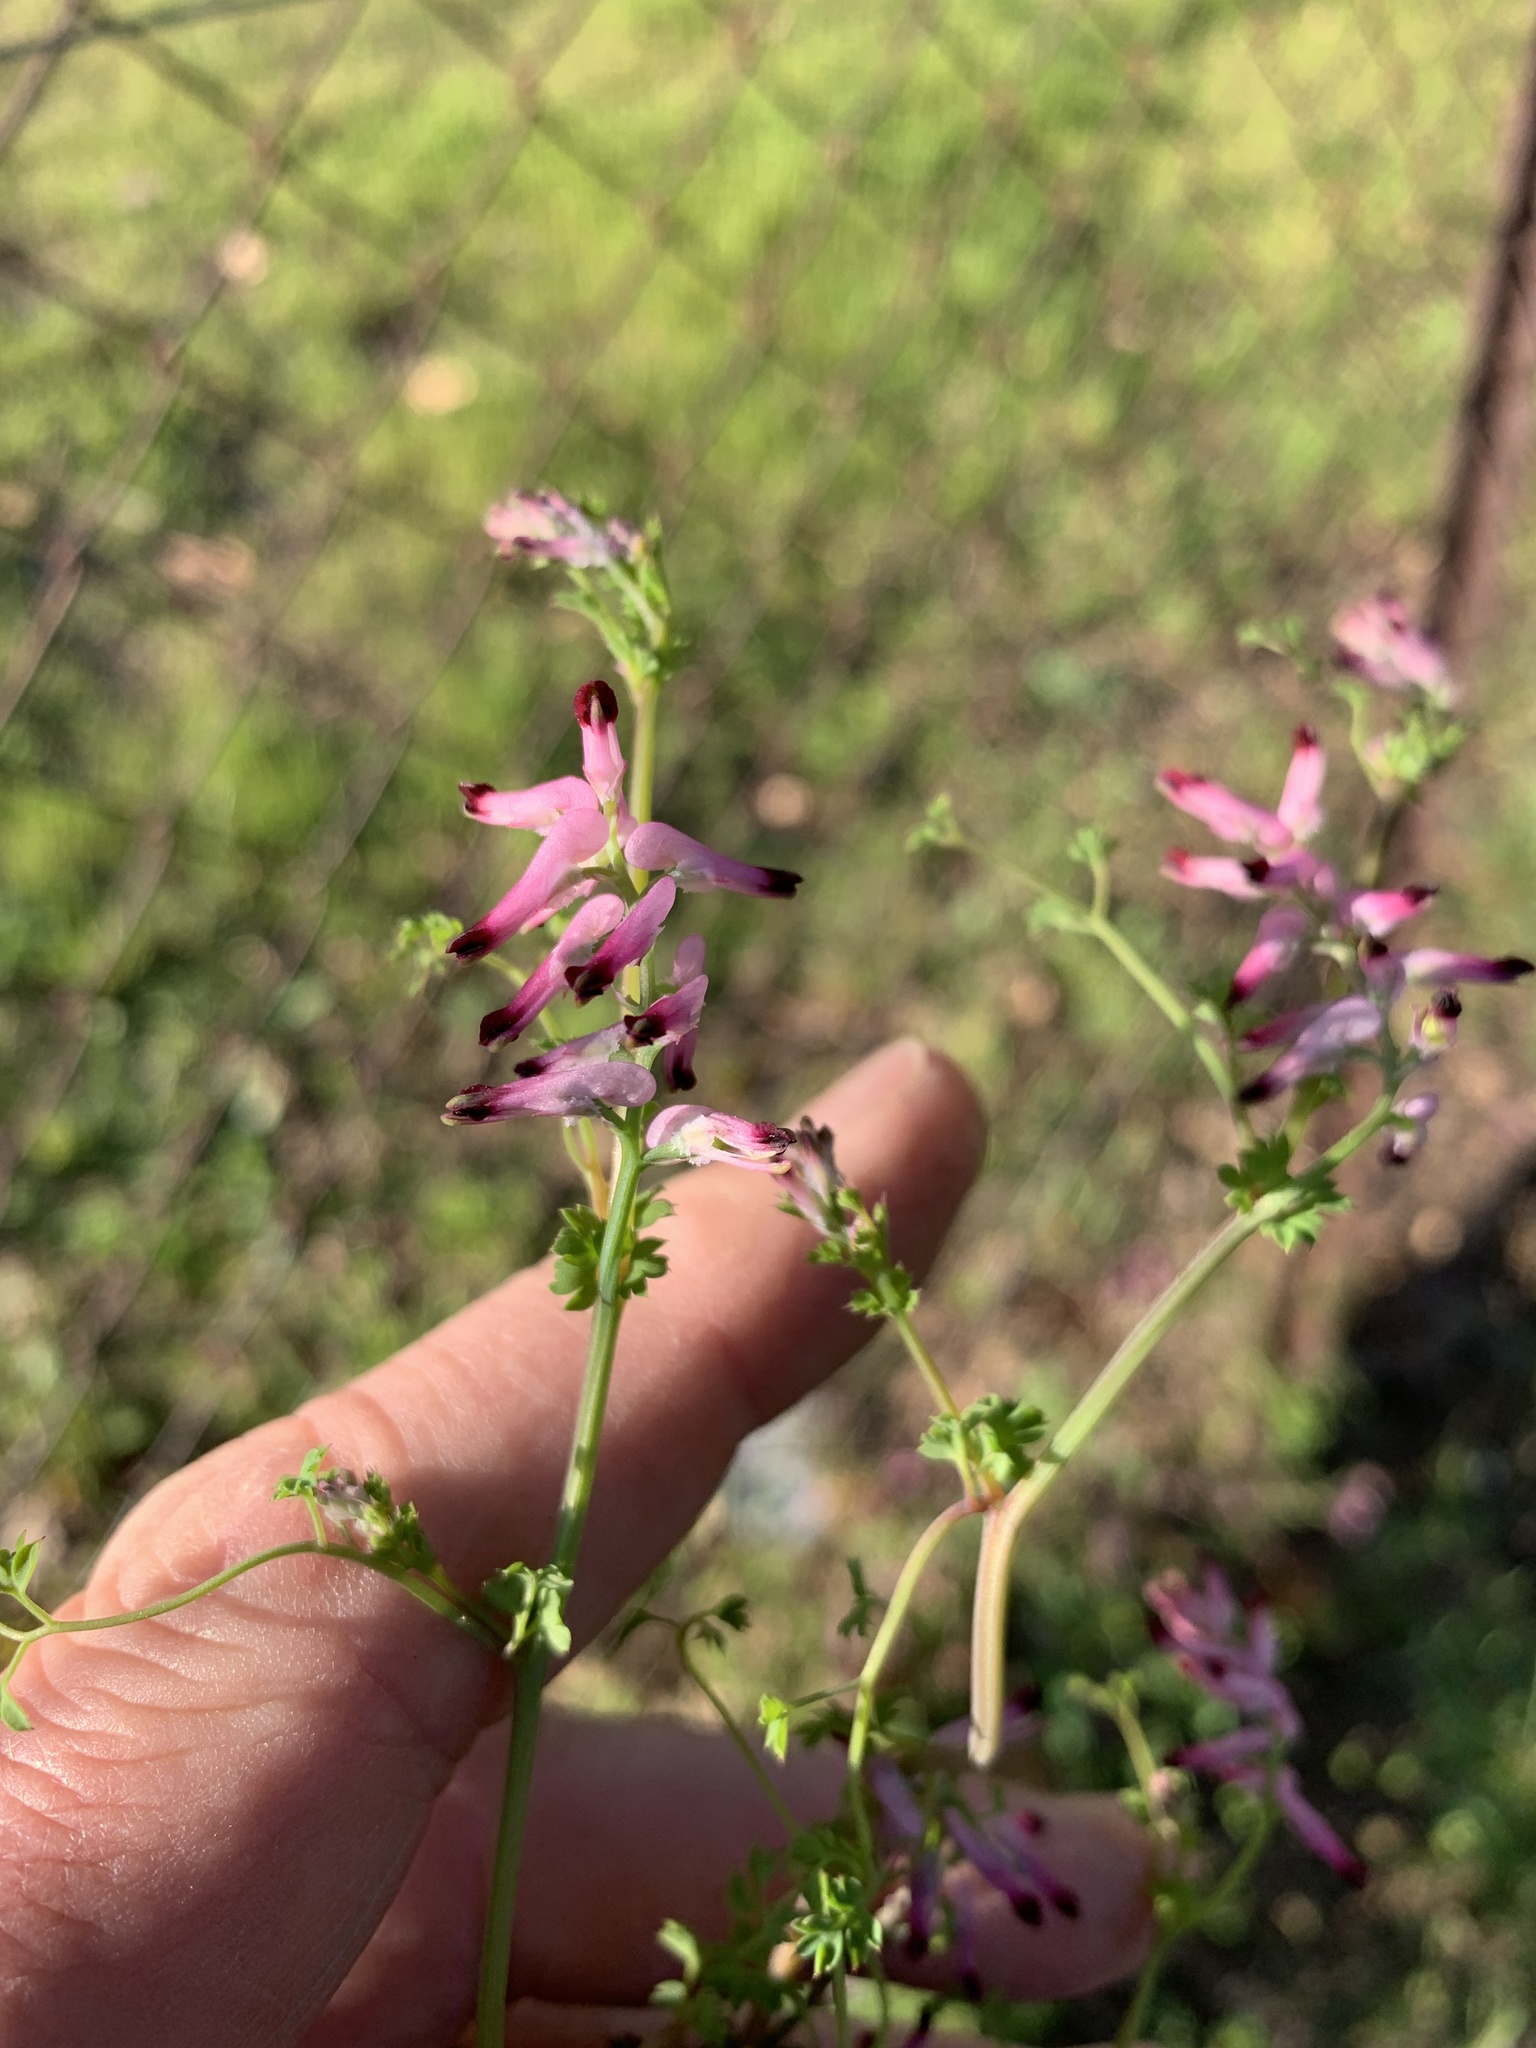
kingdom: Plantae
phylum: Tracheophyta
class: Magnoliopsida
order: Ranunculales
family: Papaveraceae
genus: Fumaria
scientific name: Fumaria muralis
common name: Common ramping-fumitory
